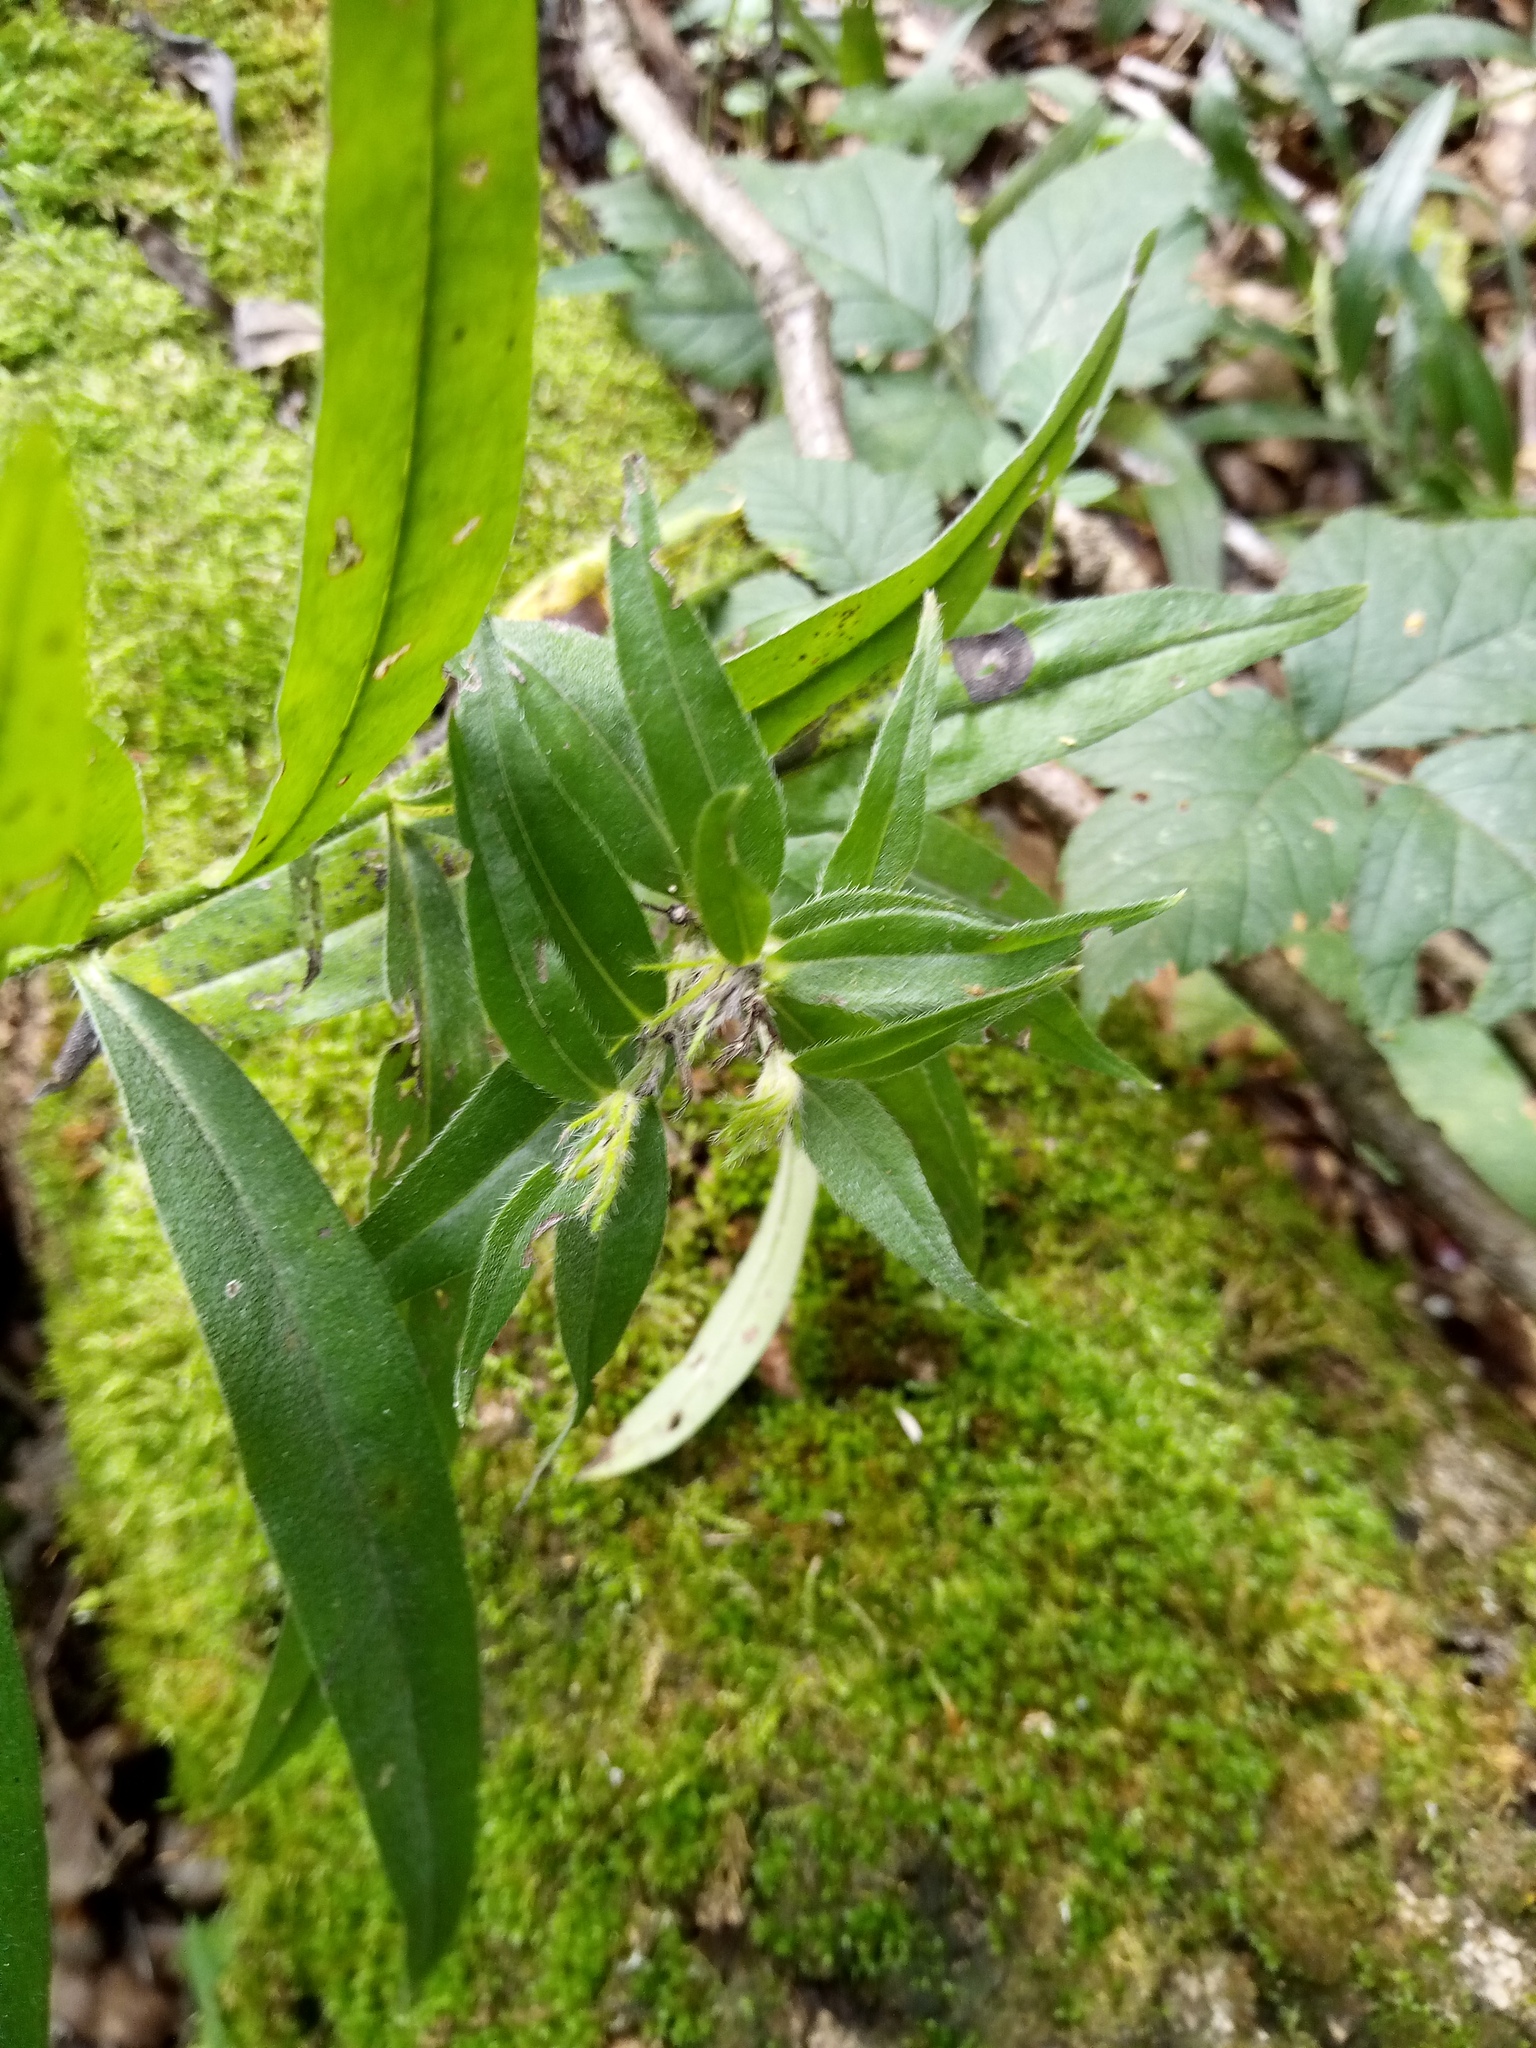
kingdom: Plantae
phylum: Tracheophyta
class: Magnoliopsida
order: Boraginales
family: Boraginaceae
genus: Aegonychon
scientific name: Aegonychon purpurocaeruleum
